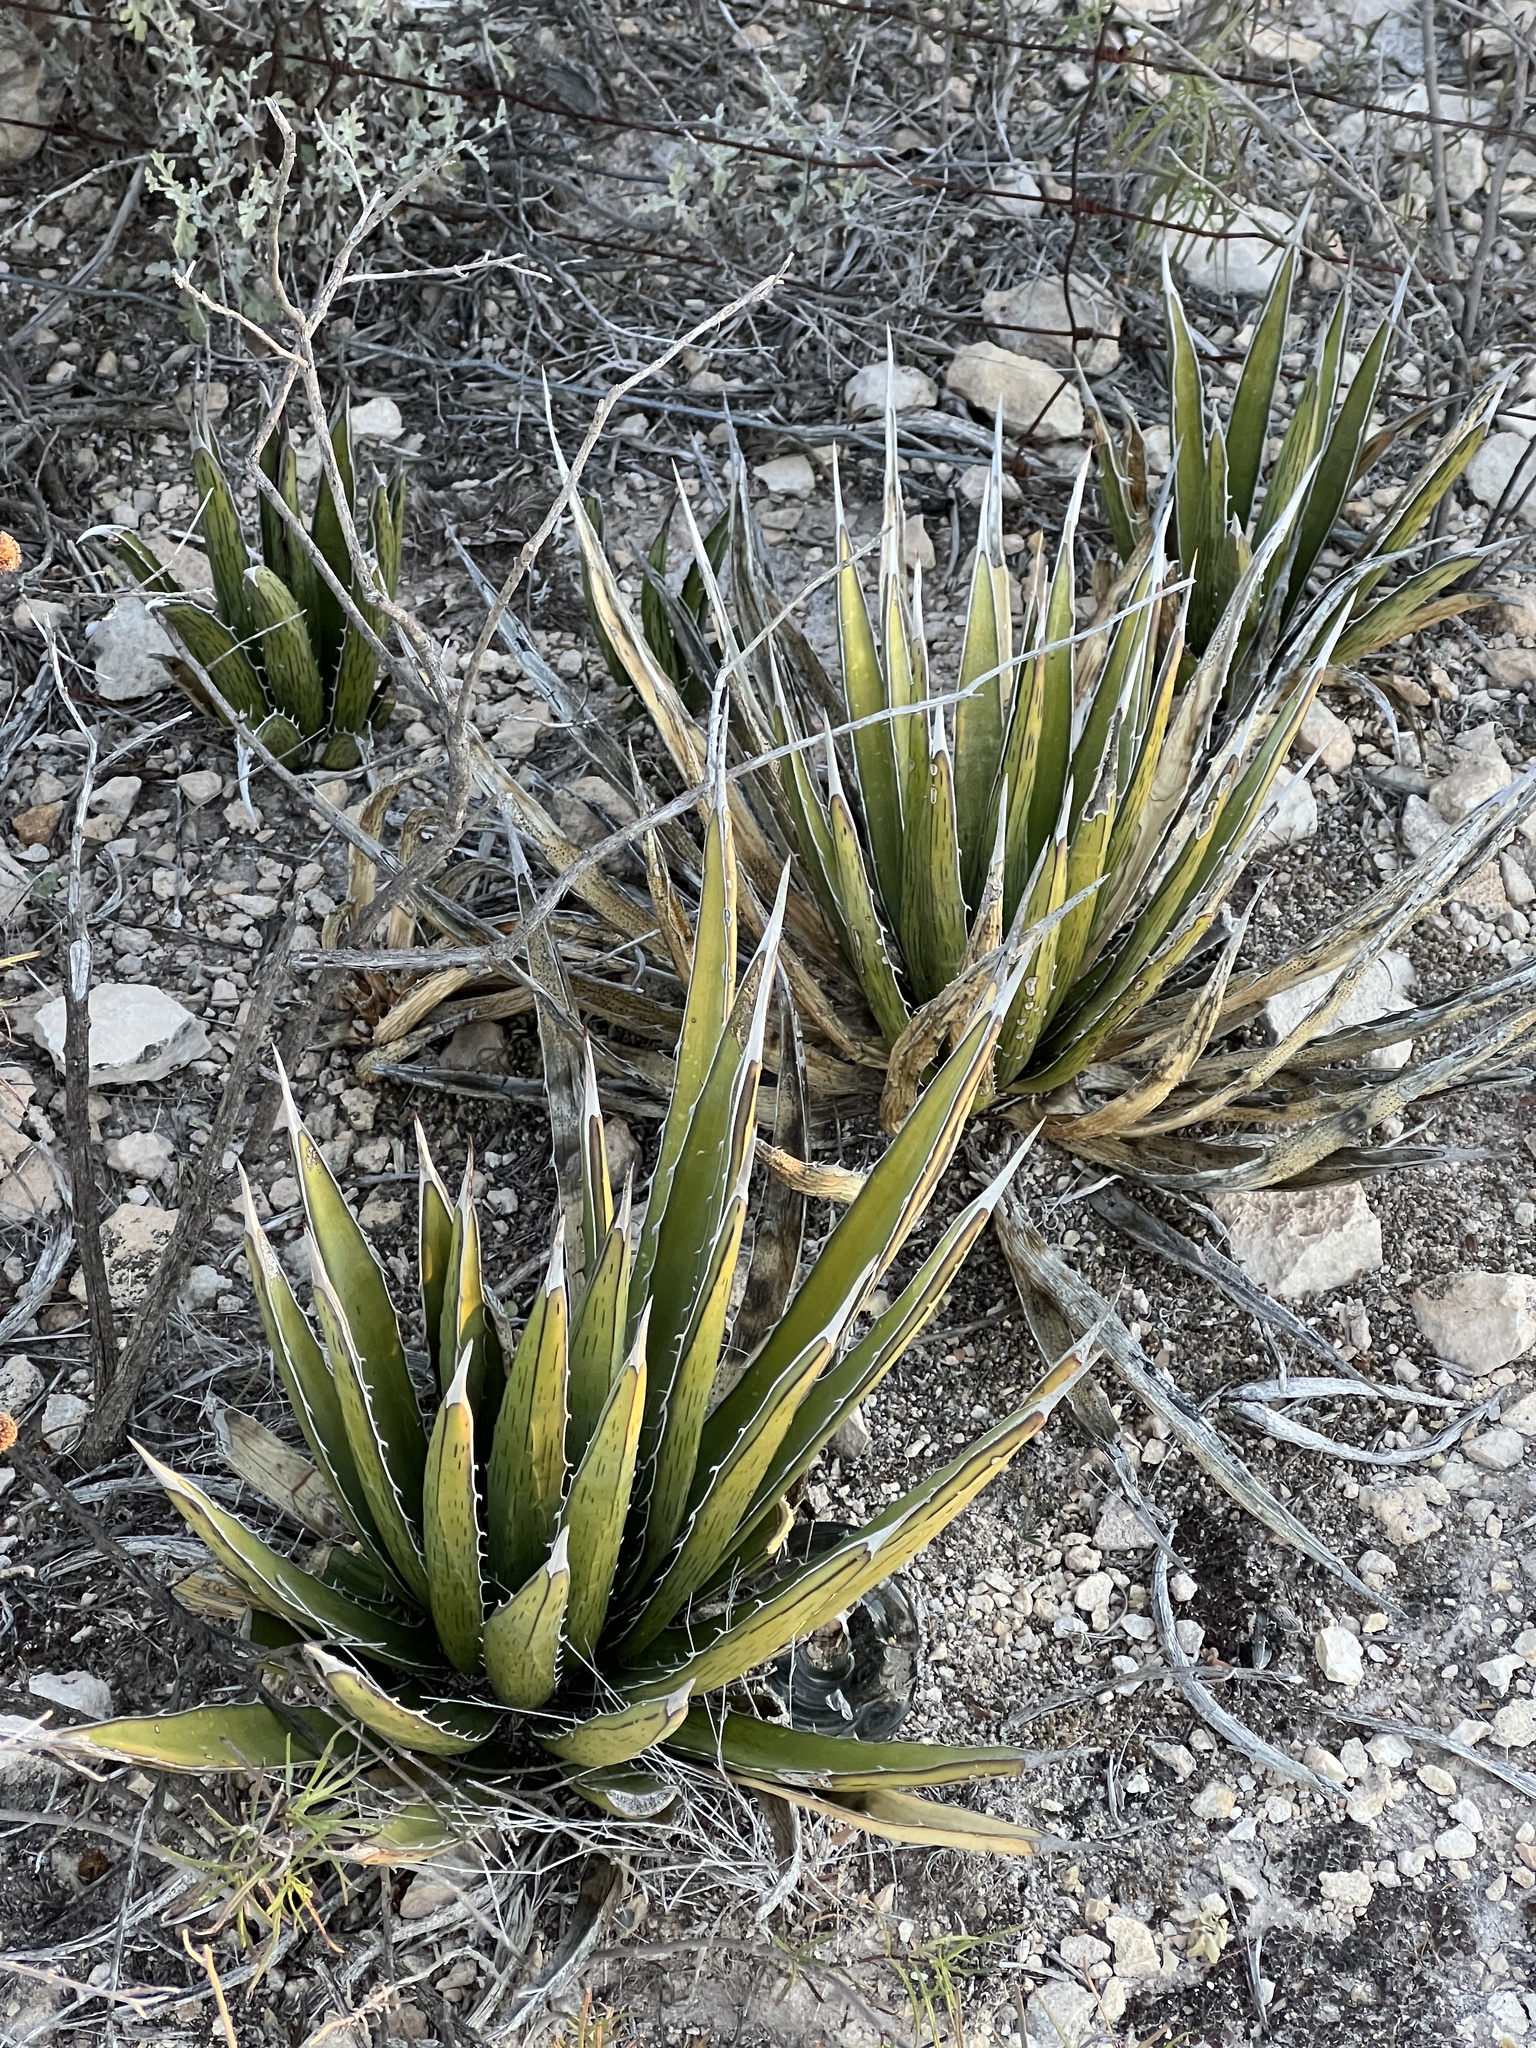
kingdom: Plantae
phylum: Tracheophyta
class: Liliopsida
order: Asparagales
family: Asparagaceae
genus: Agave
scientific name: Agave lechuguilla
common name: Lecheguilla agave
